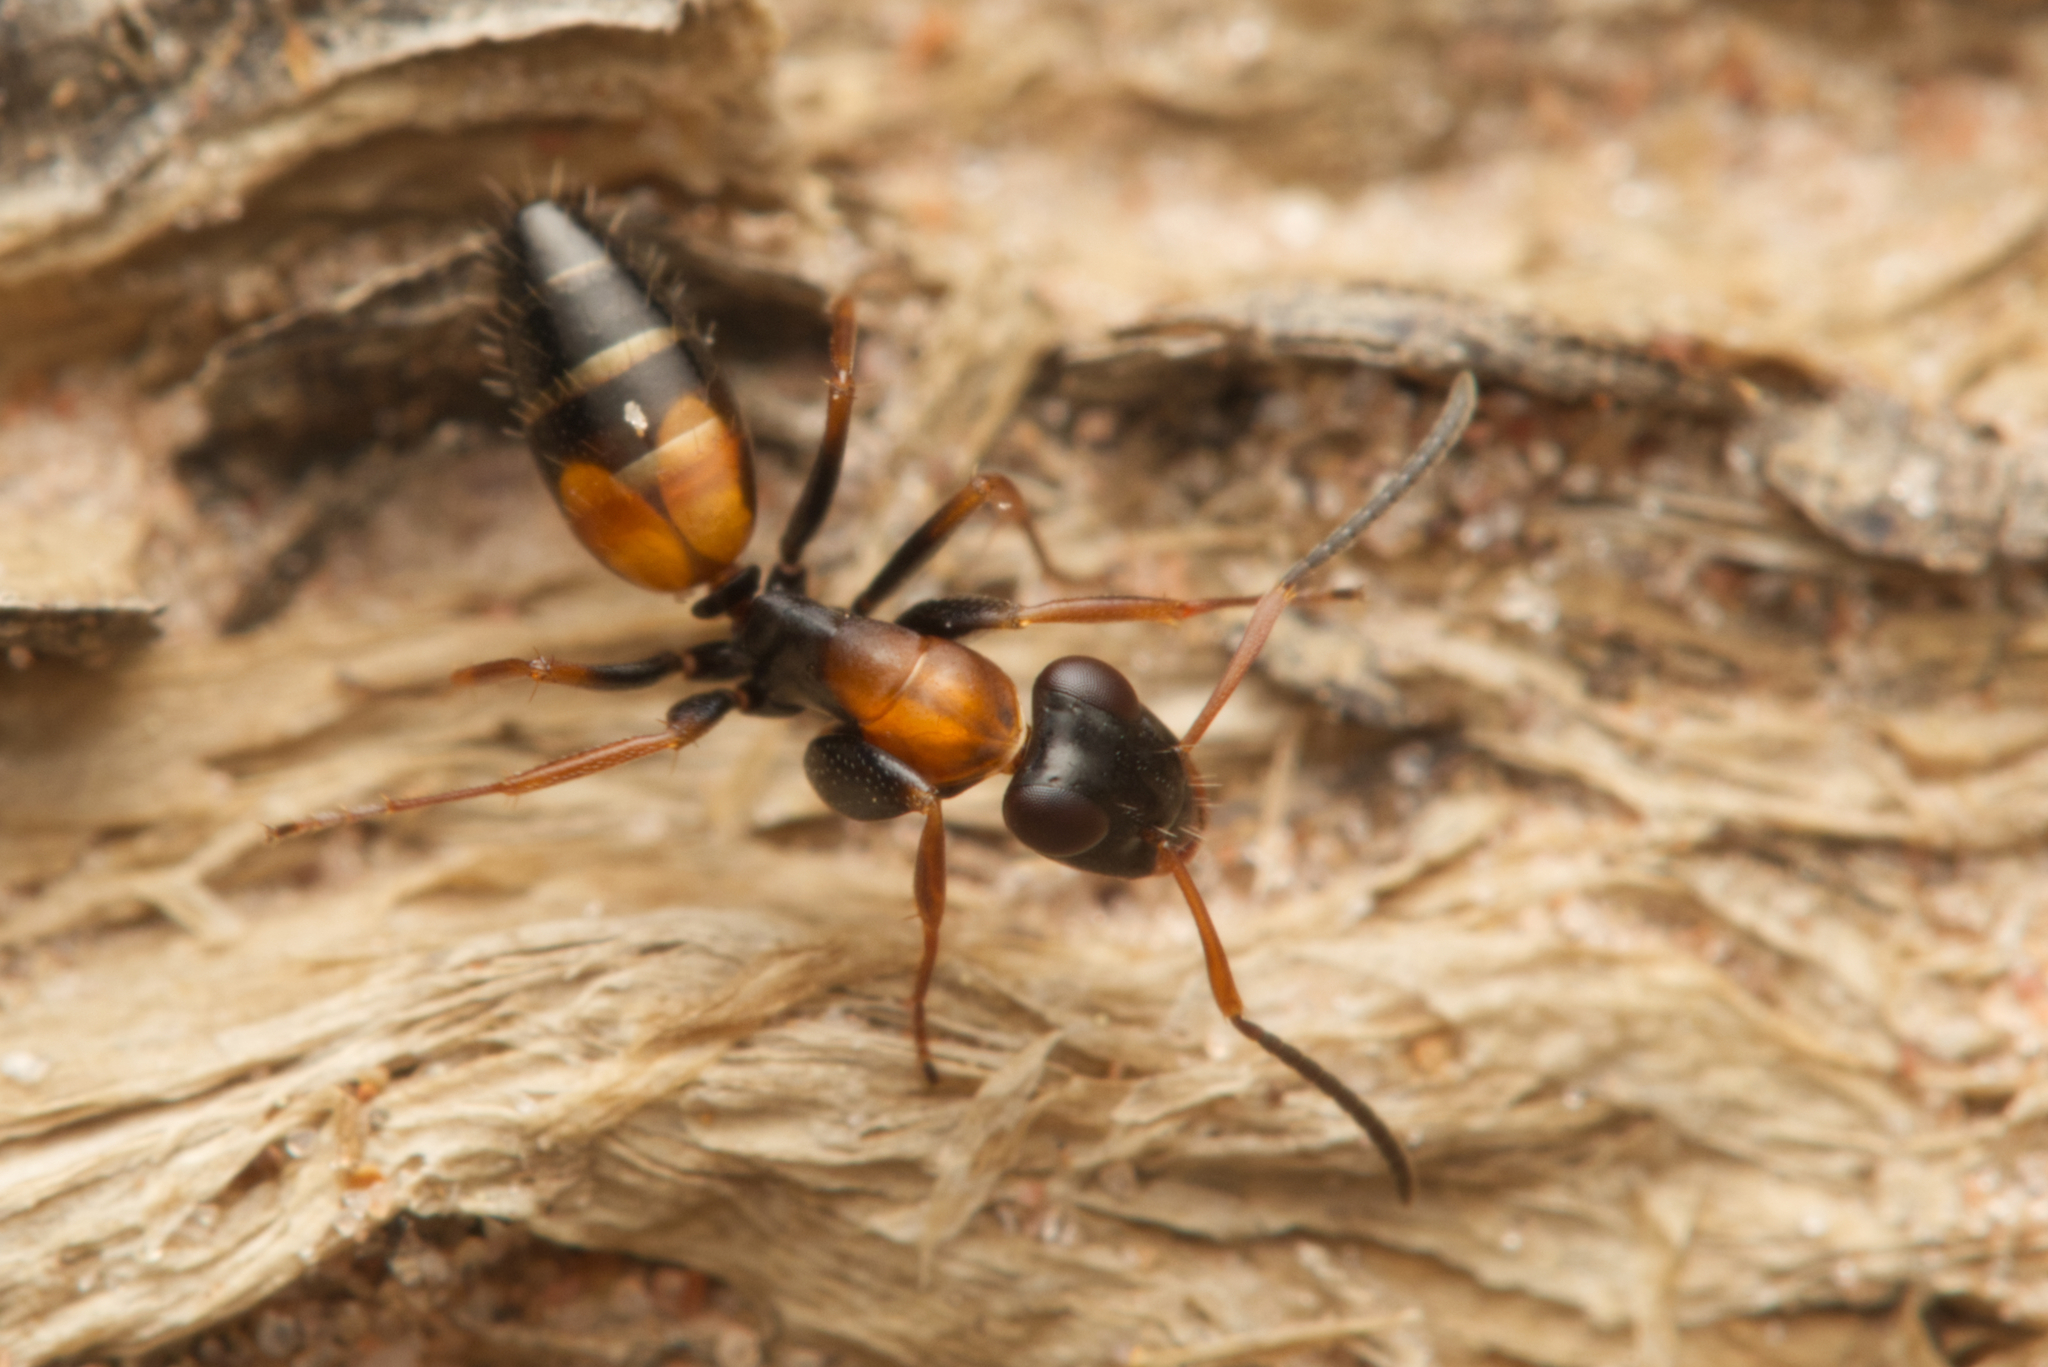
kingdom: Animalia
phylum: Arthropoda
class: Insecta
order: Hymenoptera
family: Formicidae
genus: Opisthopsis
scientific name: Opisthopsis pictus
